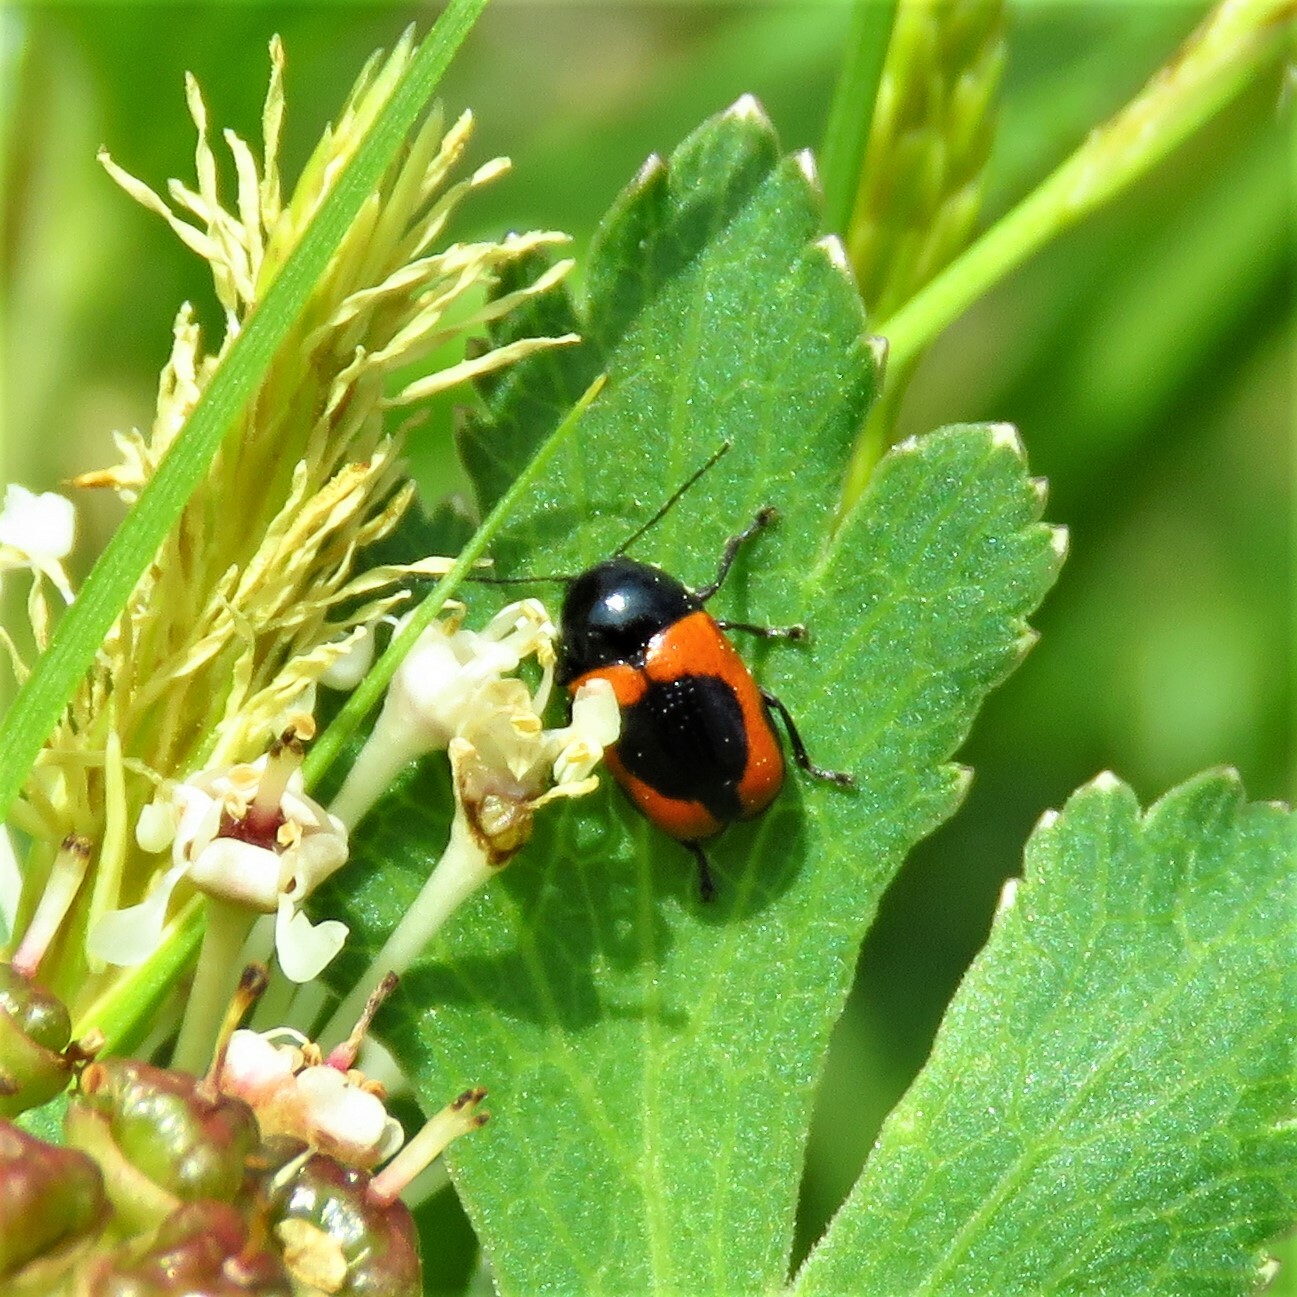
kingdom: Animalia
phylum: Arthropoda
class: Insecta
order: Coleoptera
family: Chrysomelidae
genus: Cryptocephalus
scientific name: Cryptocephalus notatus
